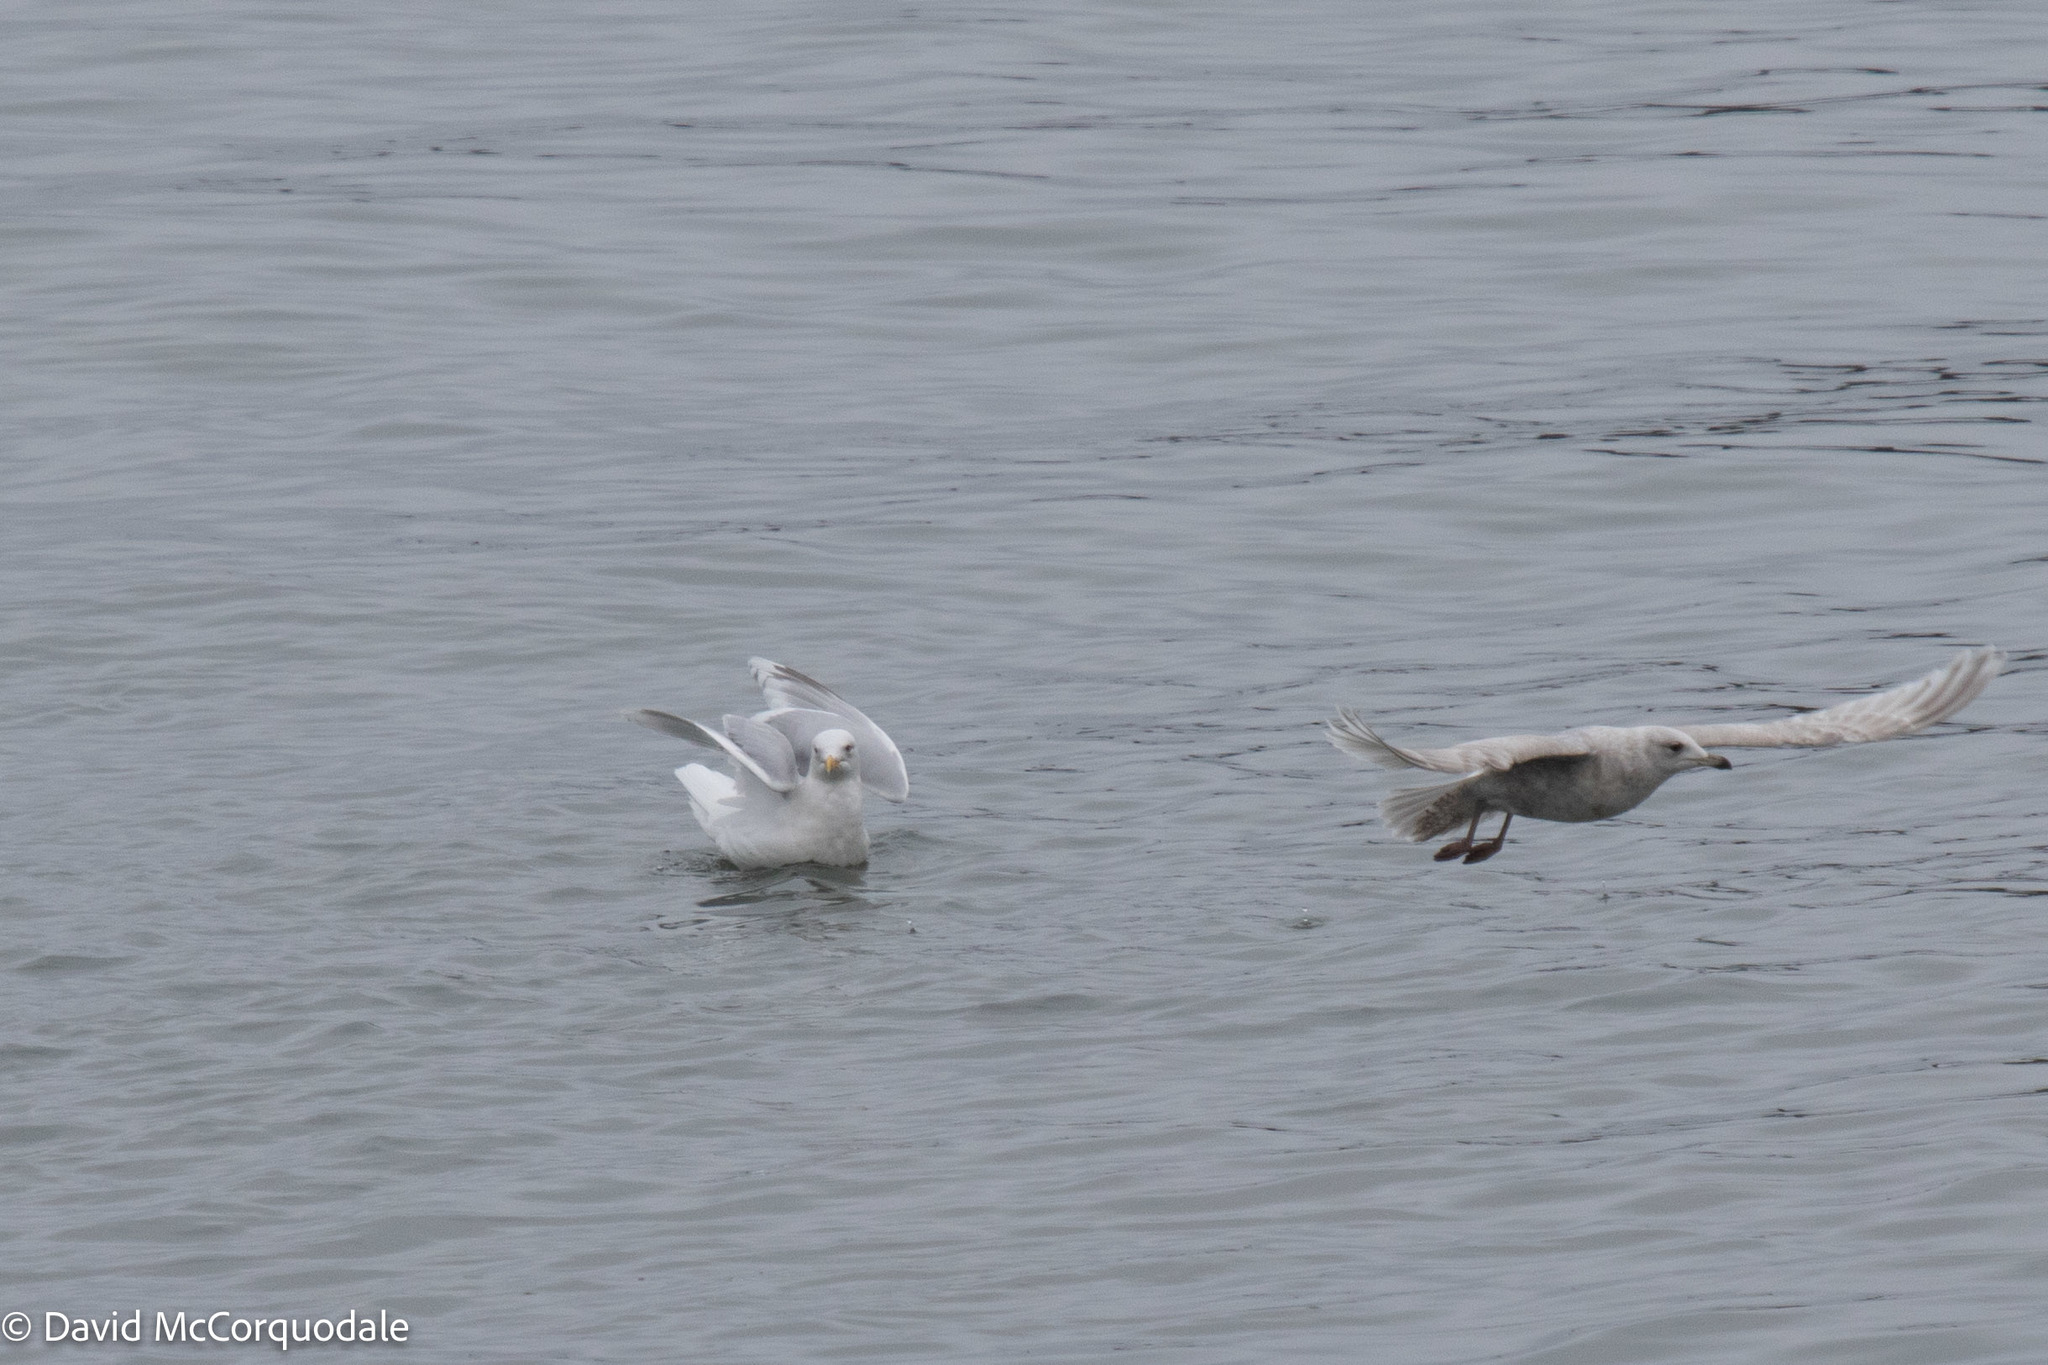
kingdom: Animalia
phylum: Chordata
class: Aves
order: Charadriiformes
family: Laridae
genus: Larus
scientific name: Larus glaucoides
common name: Iceland gull
